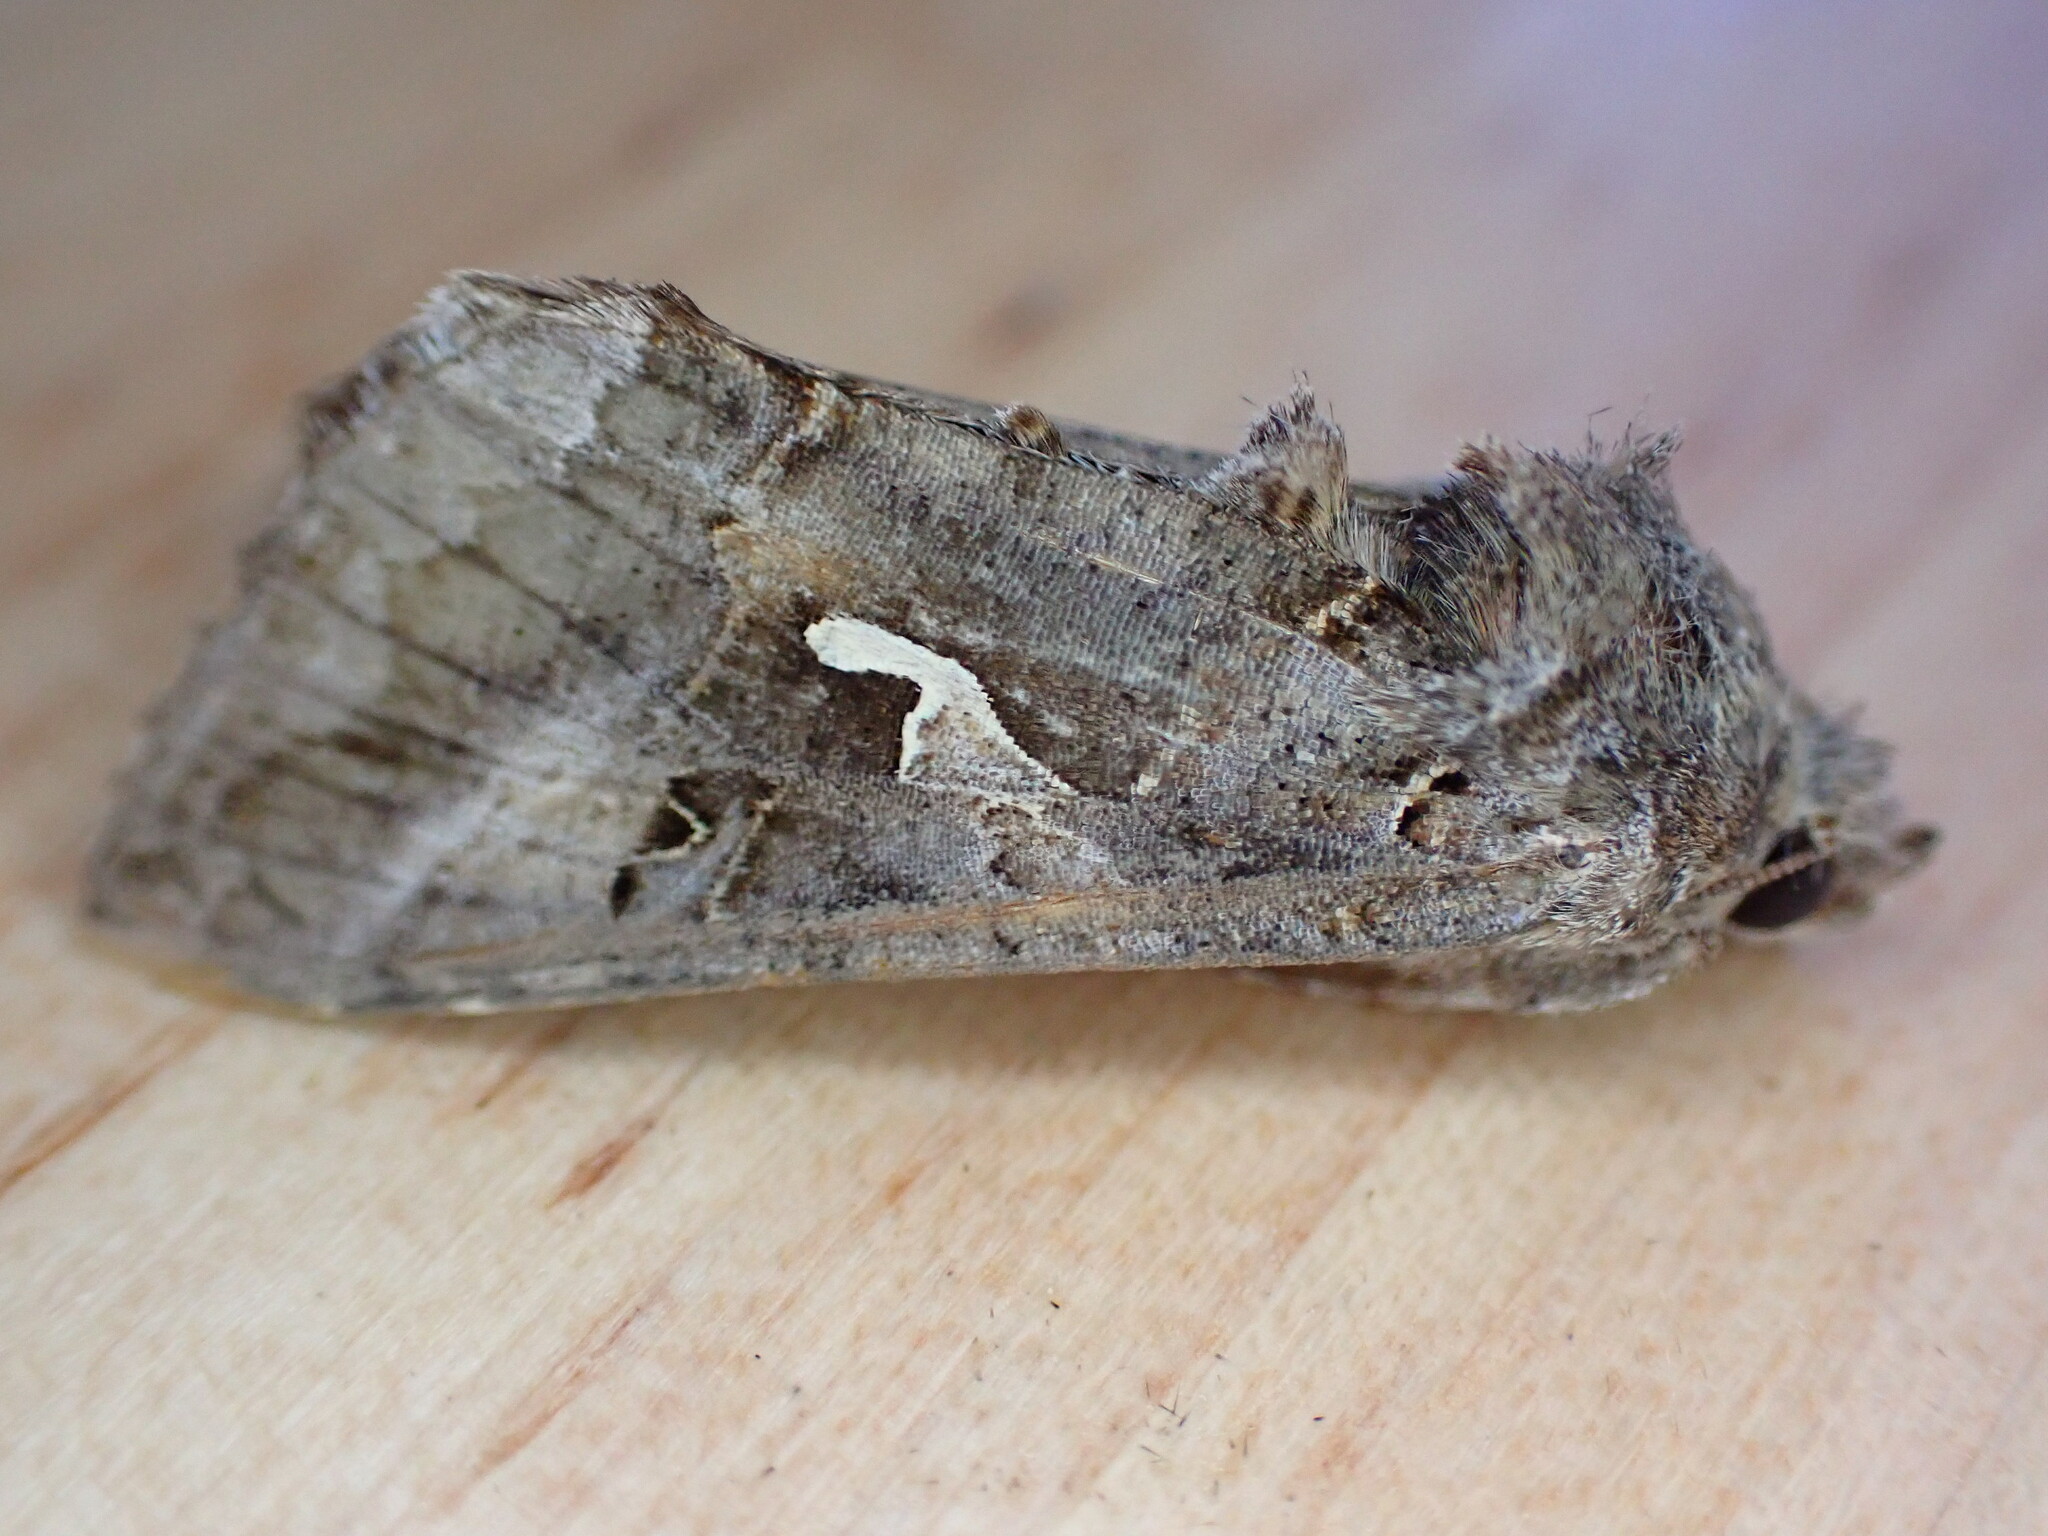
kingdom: Animalia
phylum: Arthropoda
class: Insecta
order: Lepidoptera
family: Noctuidae
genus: Autographa
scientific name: Autographa gamma
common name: Silver y
